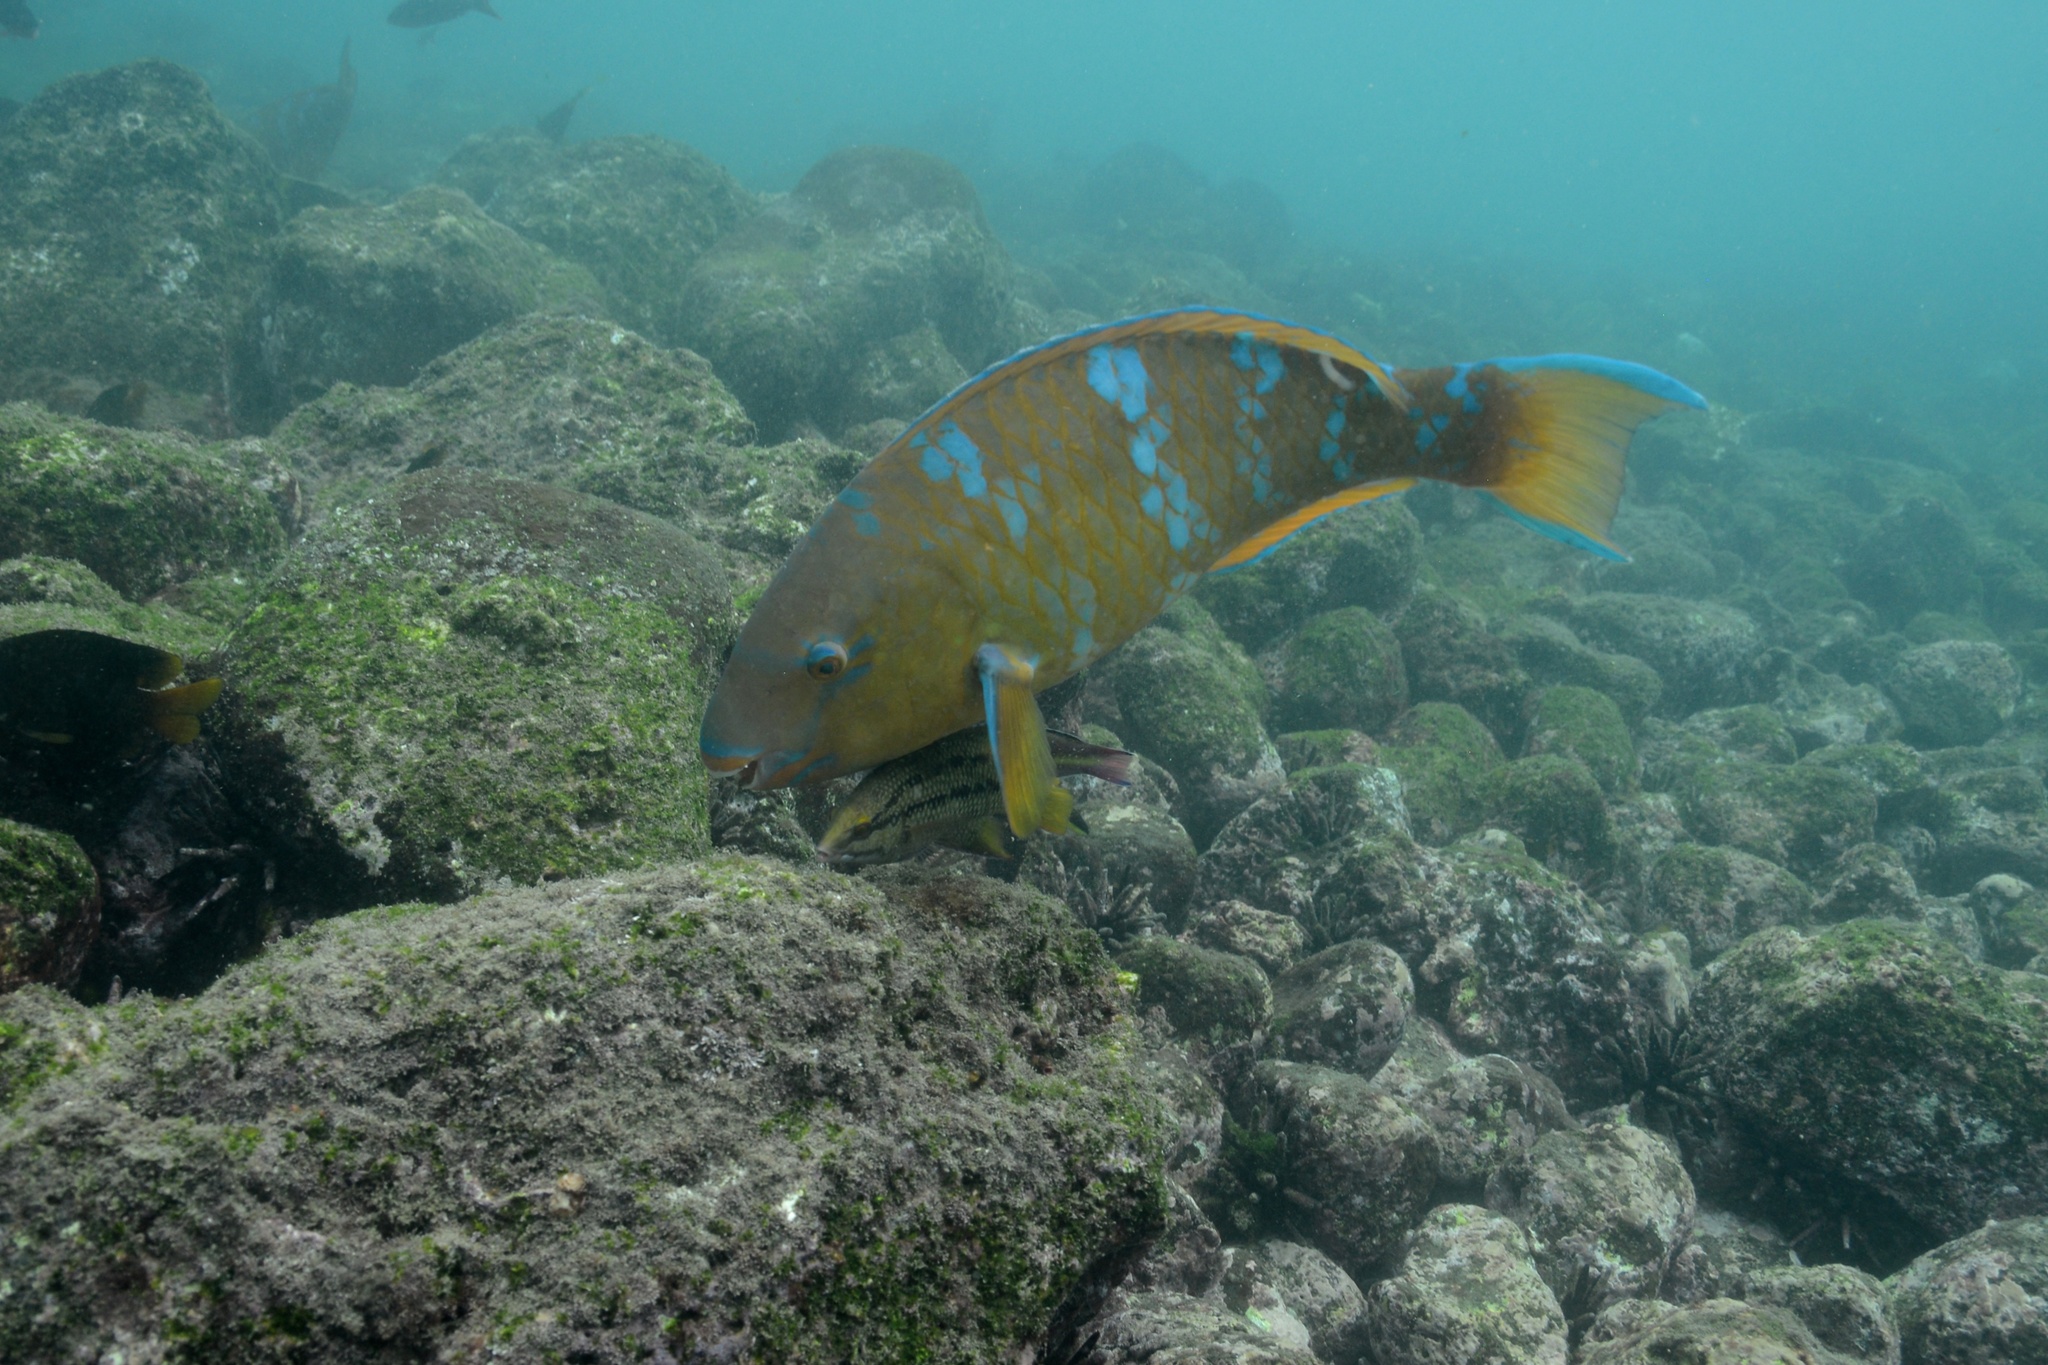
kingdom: Animalia
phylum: Chordata
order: Perciformes
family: Scaridae
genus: Scarus
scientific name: Scarus ghobban
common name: Blue-barred parrotfish
